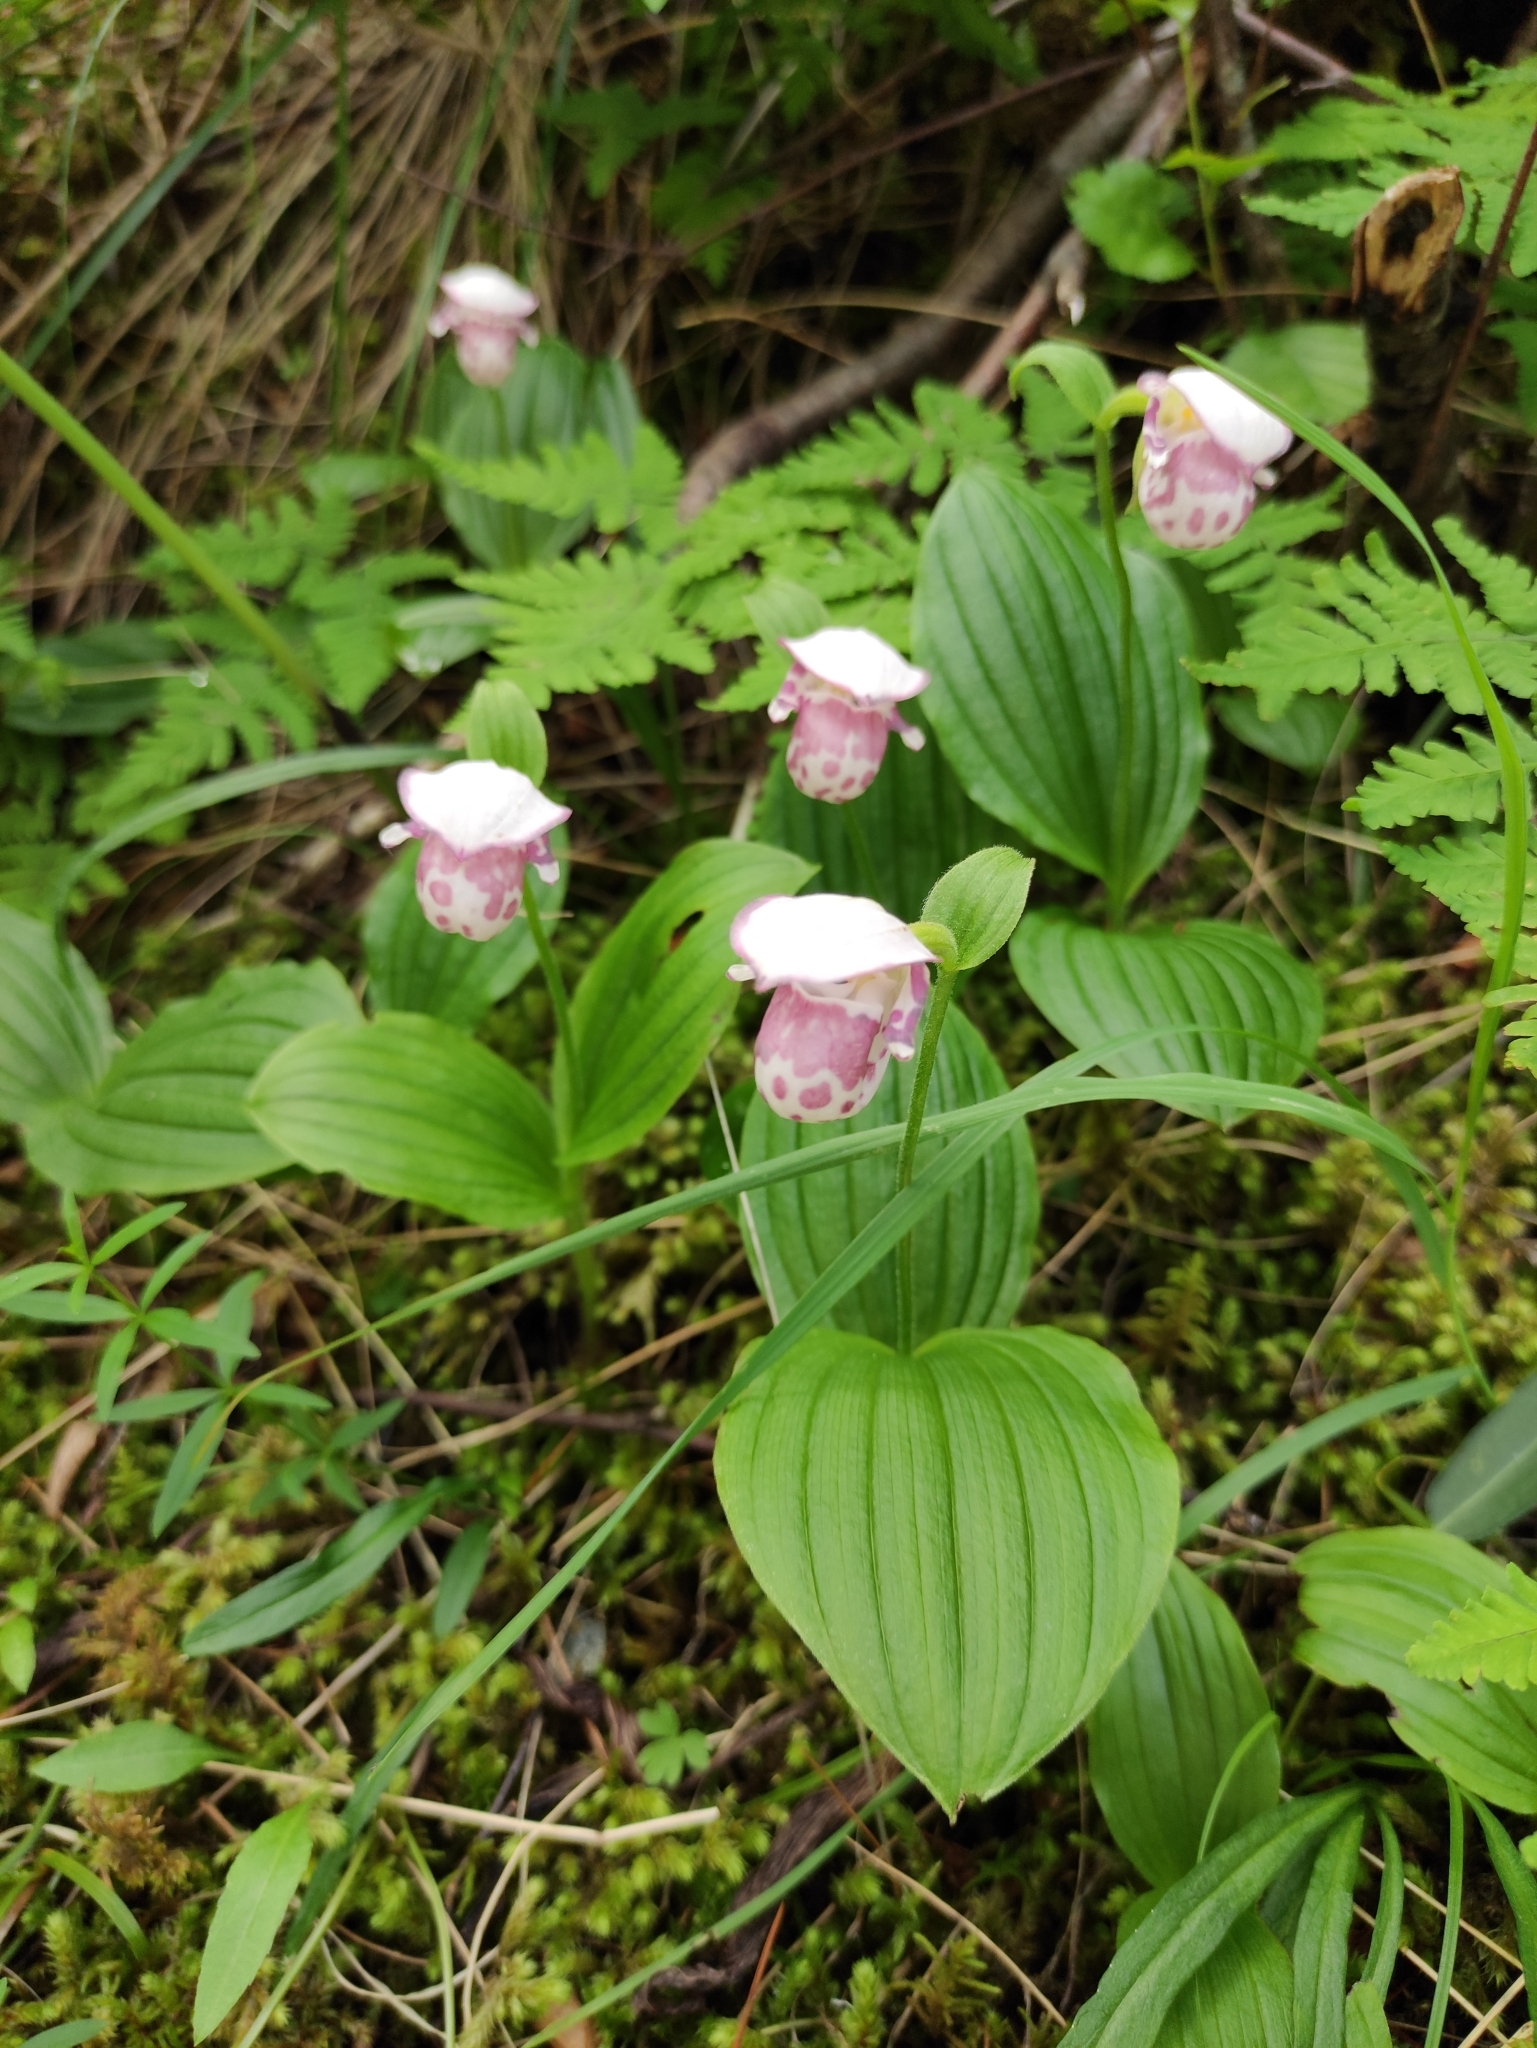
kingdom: Plantae
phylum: Tracheophyta
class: Liliopsida
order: Asparagales
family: Orchidaceae
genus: Cypripedium
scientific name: Cypripedium guttatum
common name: Pink lady slipper
